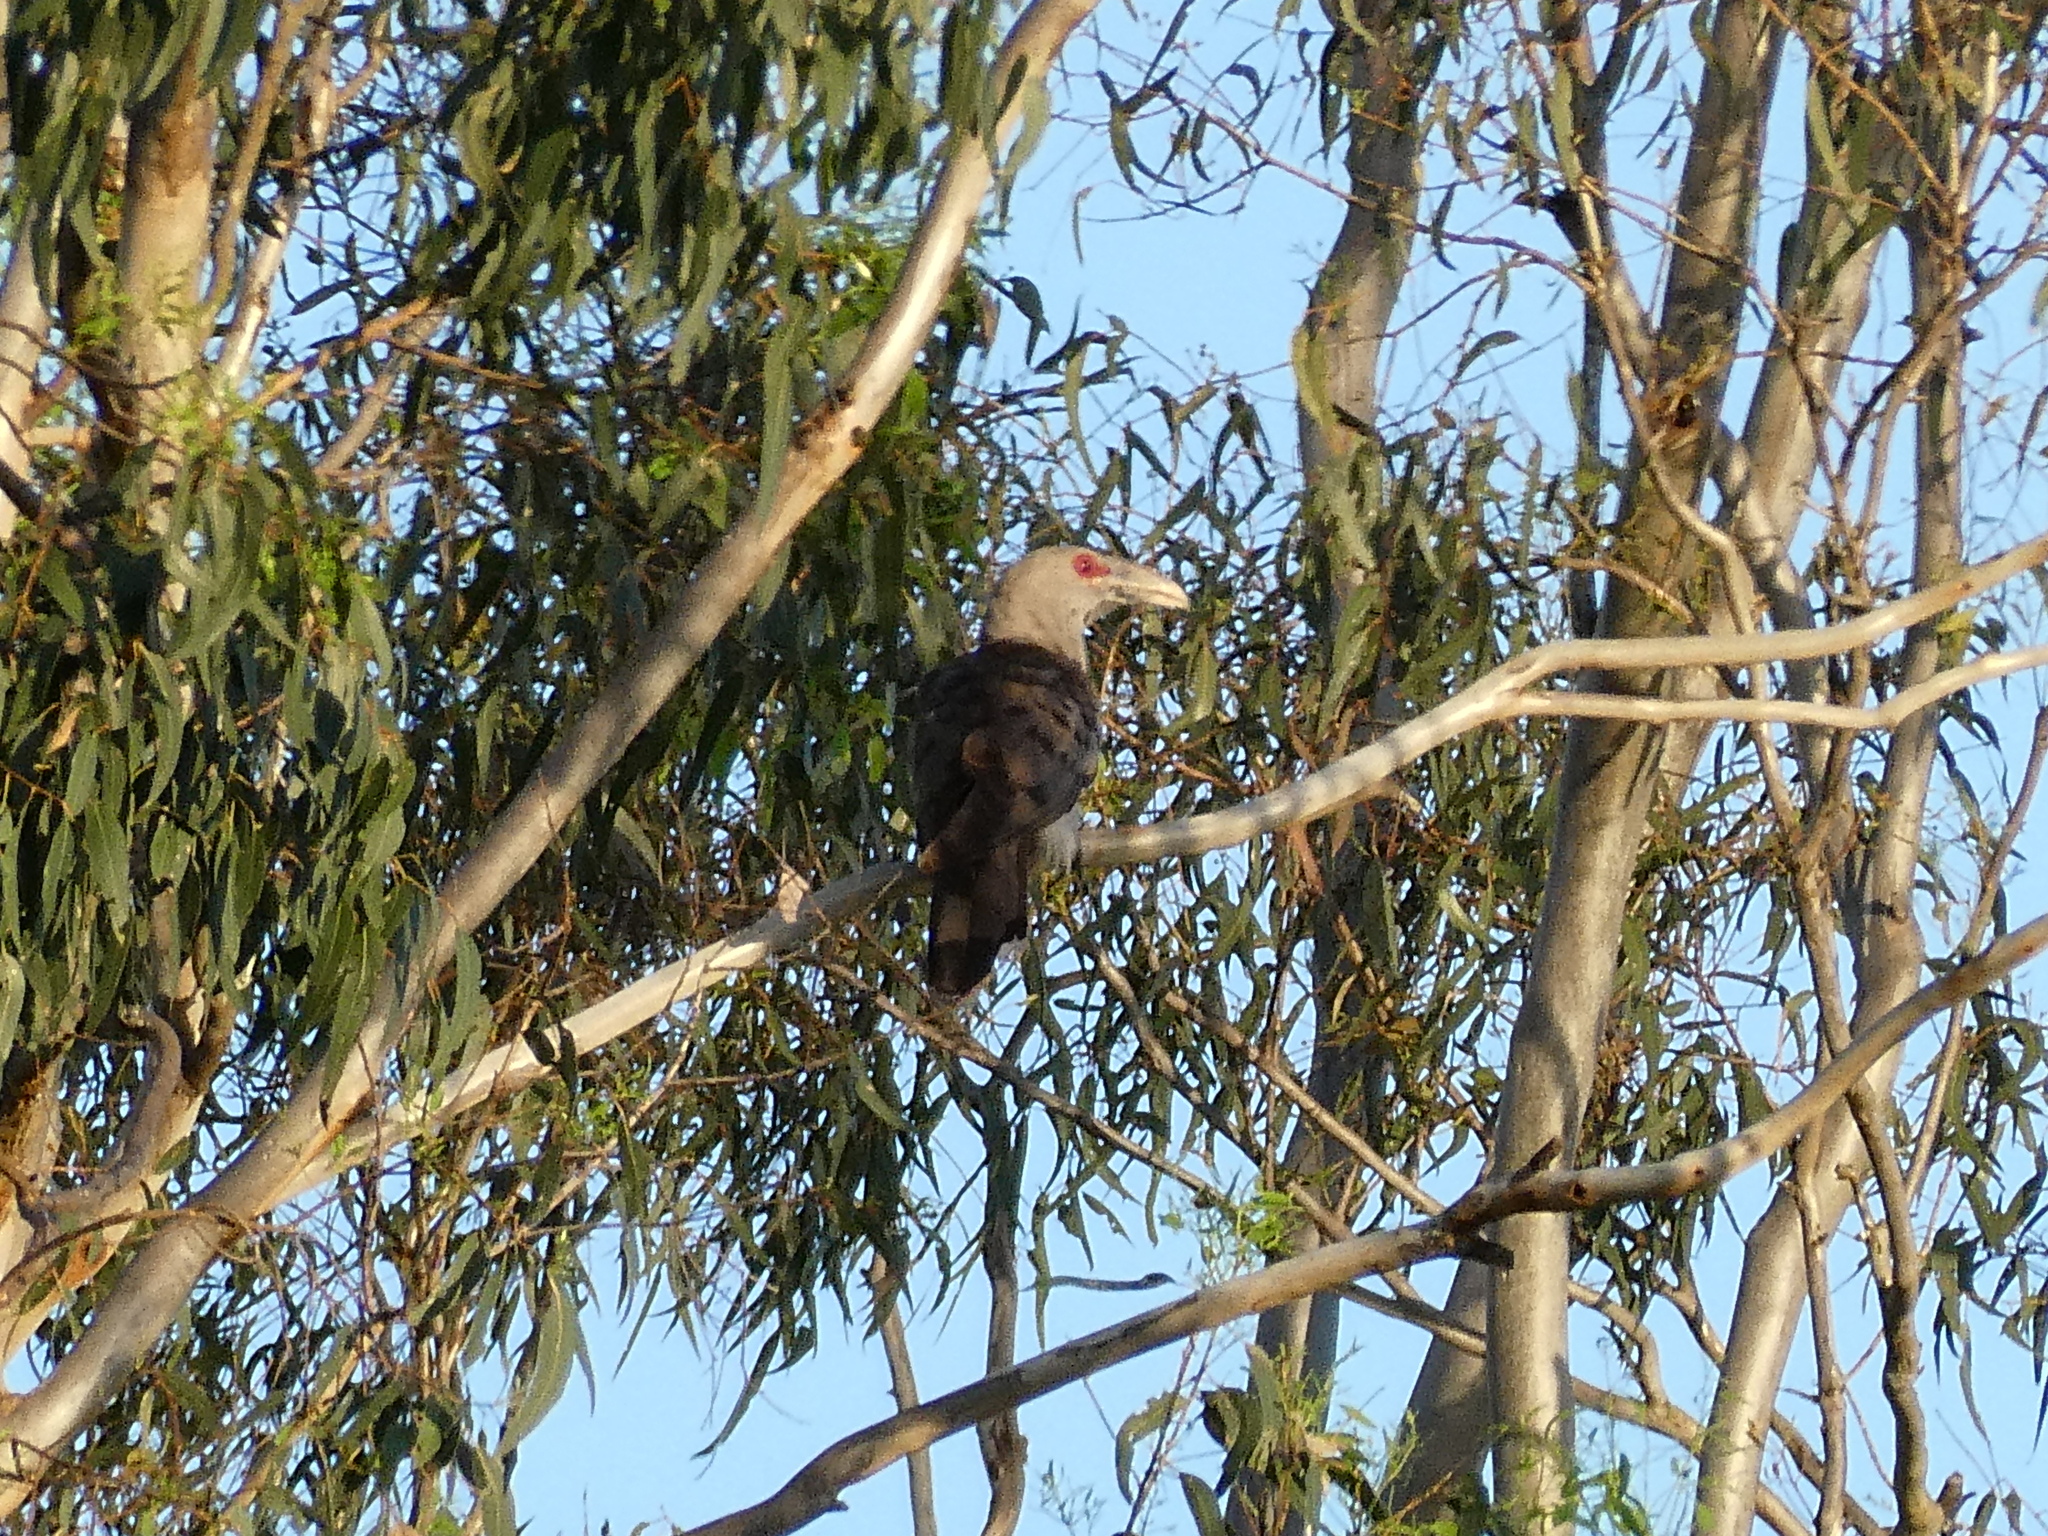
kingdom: Animalia
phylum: Chordata
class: Aves
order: Cuculiformes
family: Cuculidae
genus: Scythrops
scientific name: Scythrops novaehollandiae
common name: Channel-billed cuckoo
